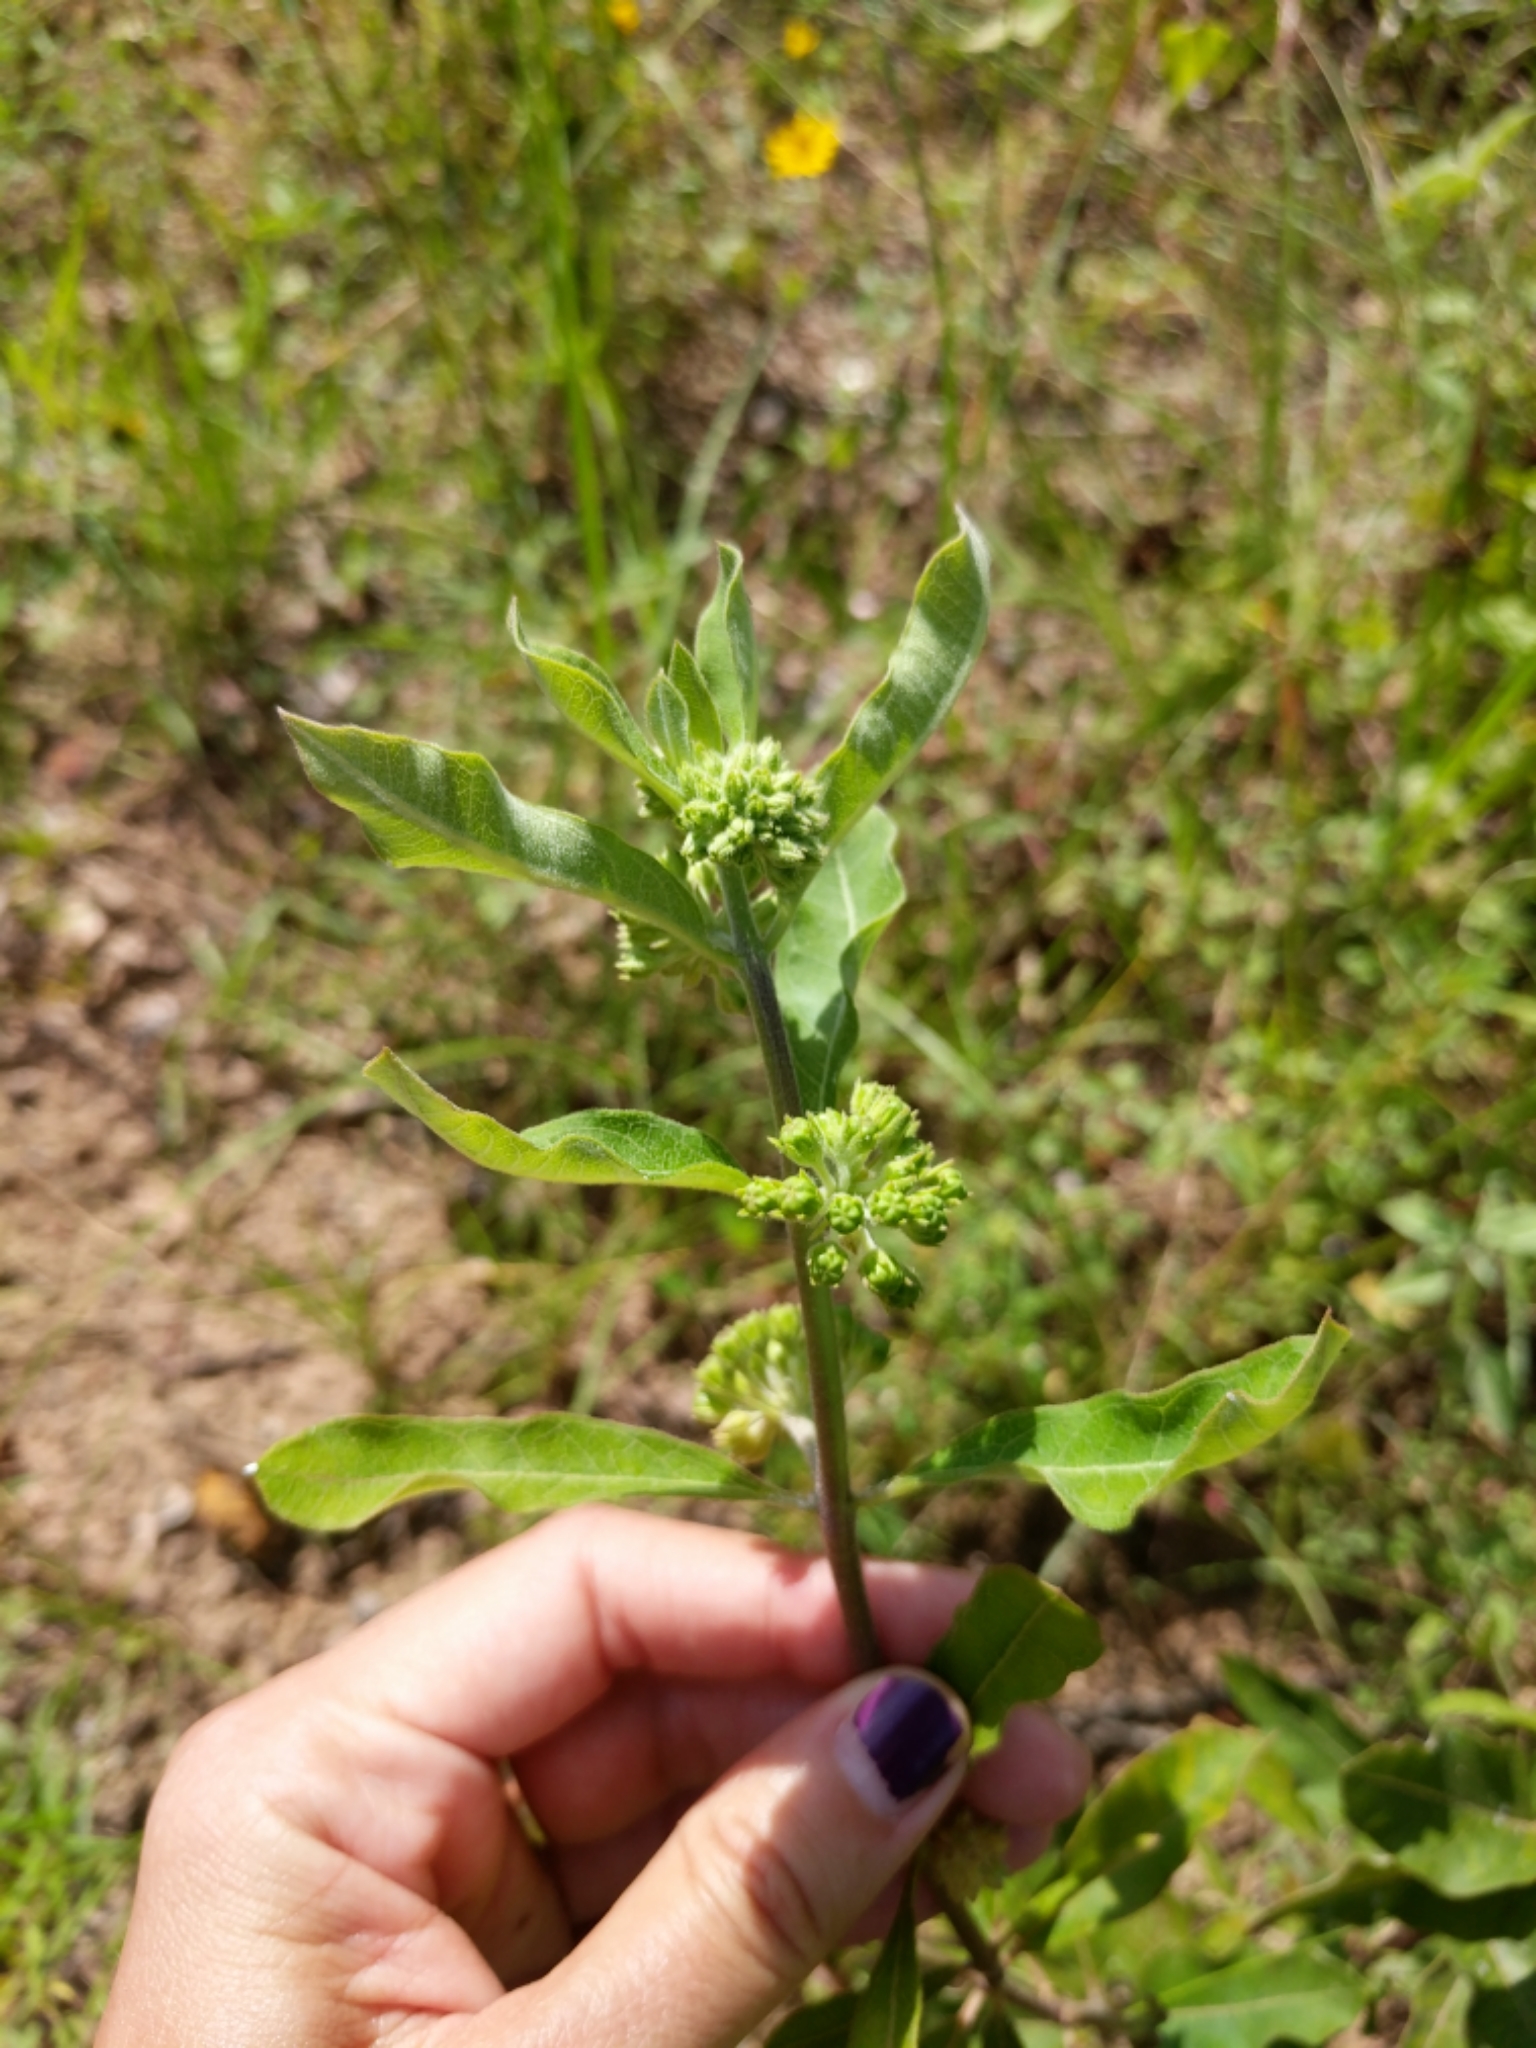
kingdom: Plantae
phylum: Tracheophyta
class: Magnoliopsida
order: Gentianales
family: Apocynaceae
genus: Asclepias
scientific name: Asclepias tomentosa
